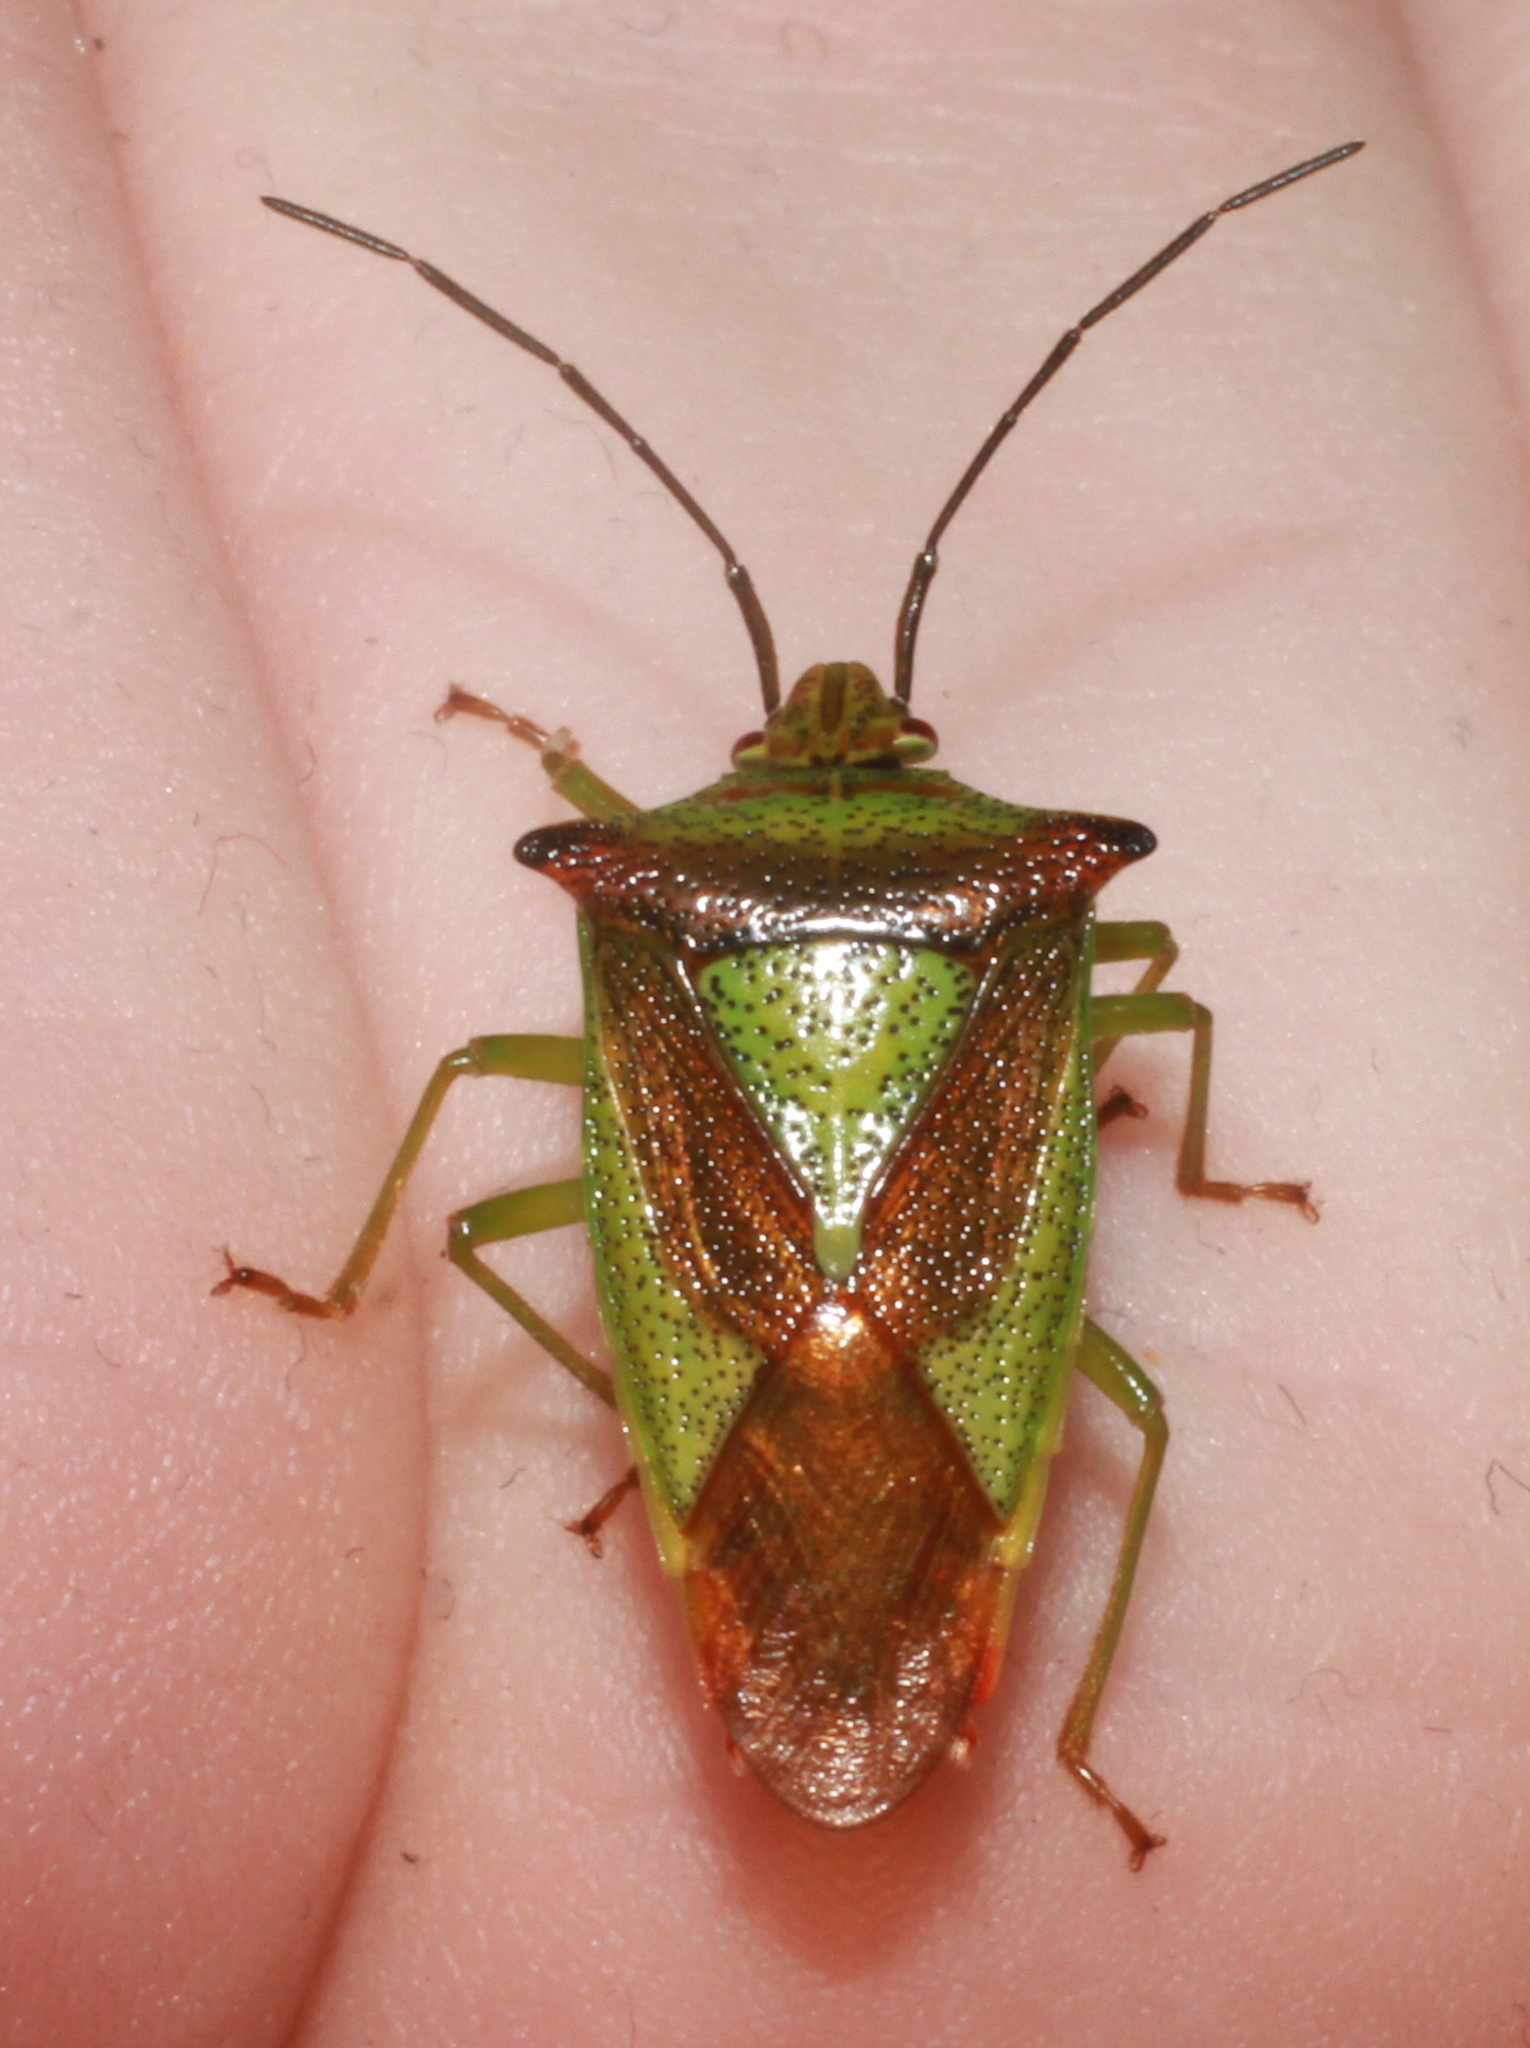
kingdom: Animalia
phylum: Arthropoda
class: Insecta
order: Hemiptera
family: Acanthosomatidae
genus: Acanthosoma
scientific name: Acanthosoma haemorrhoidale
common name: Hawthorn shieldbug
